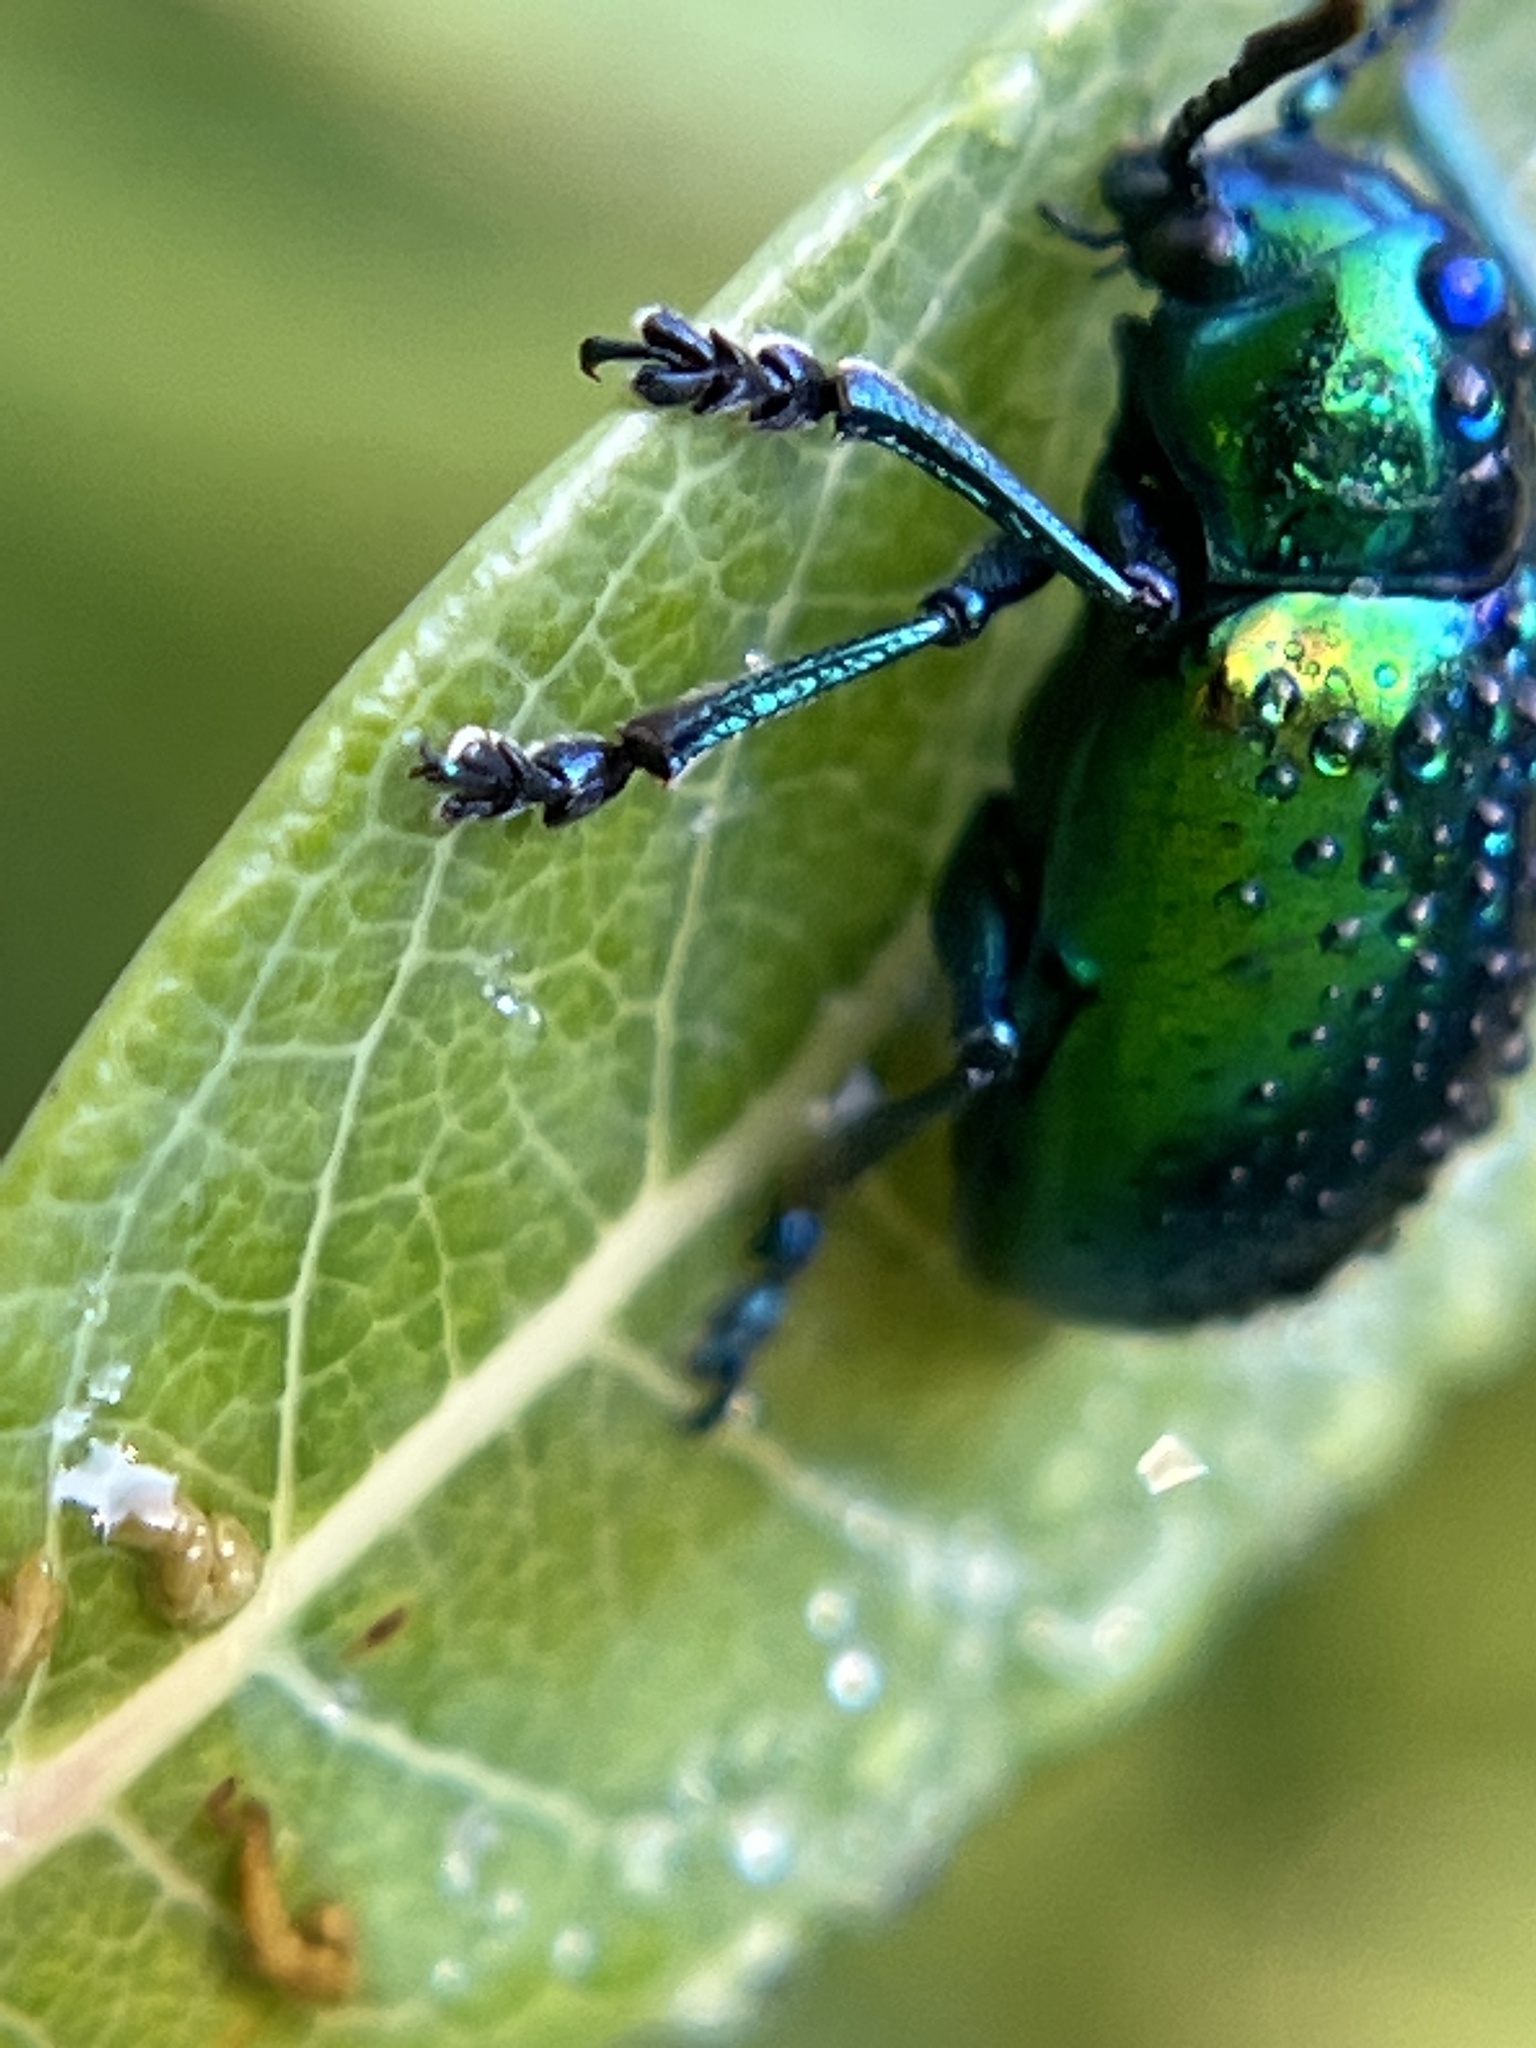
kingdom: Animalia
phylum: Arthropoda
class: Insecta
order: Coleoptera
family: Chrysomelidae
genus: Chrysochus
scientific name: Chrysochus auratus
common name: Dogbane leaf beetle
